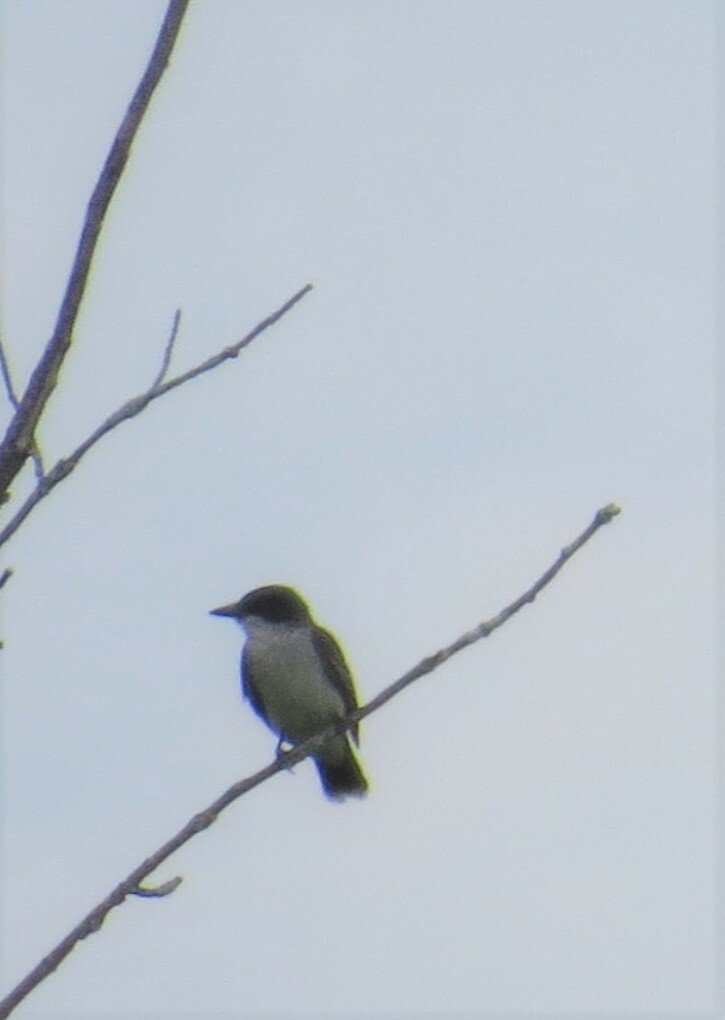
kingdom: Animalia
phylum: Chordata
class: Aves
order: Passeriformes
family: Tyrannidae
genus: Tyrannus
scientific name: Tyrannus tyrannus
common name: Eastern kingbird
